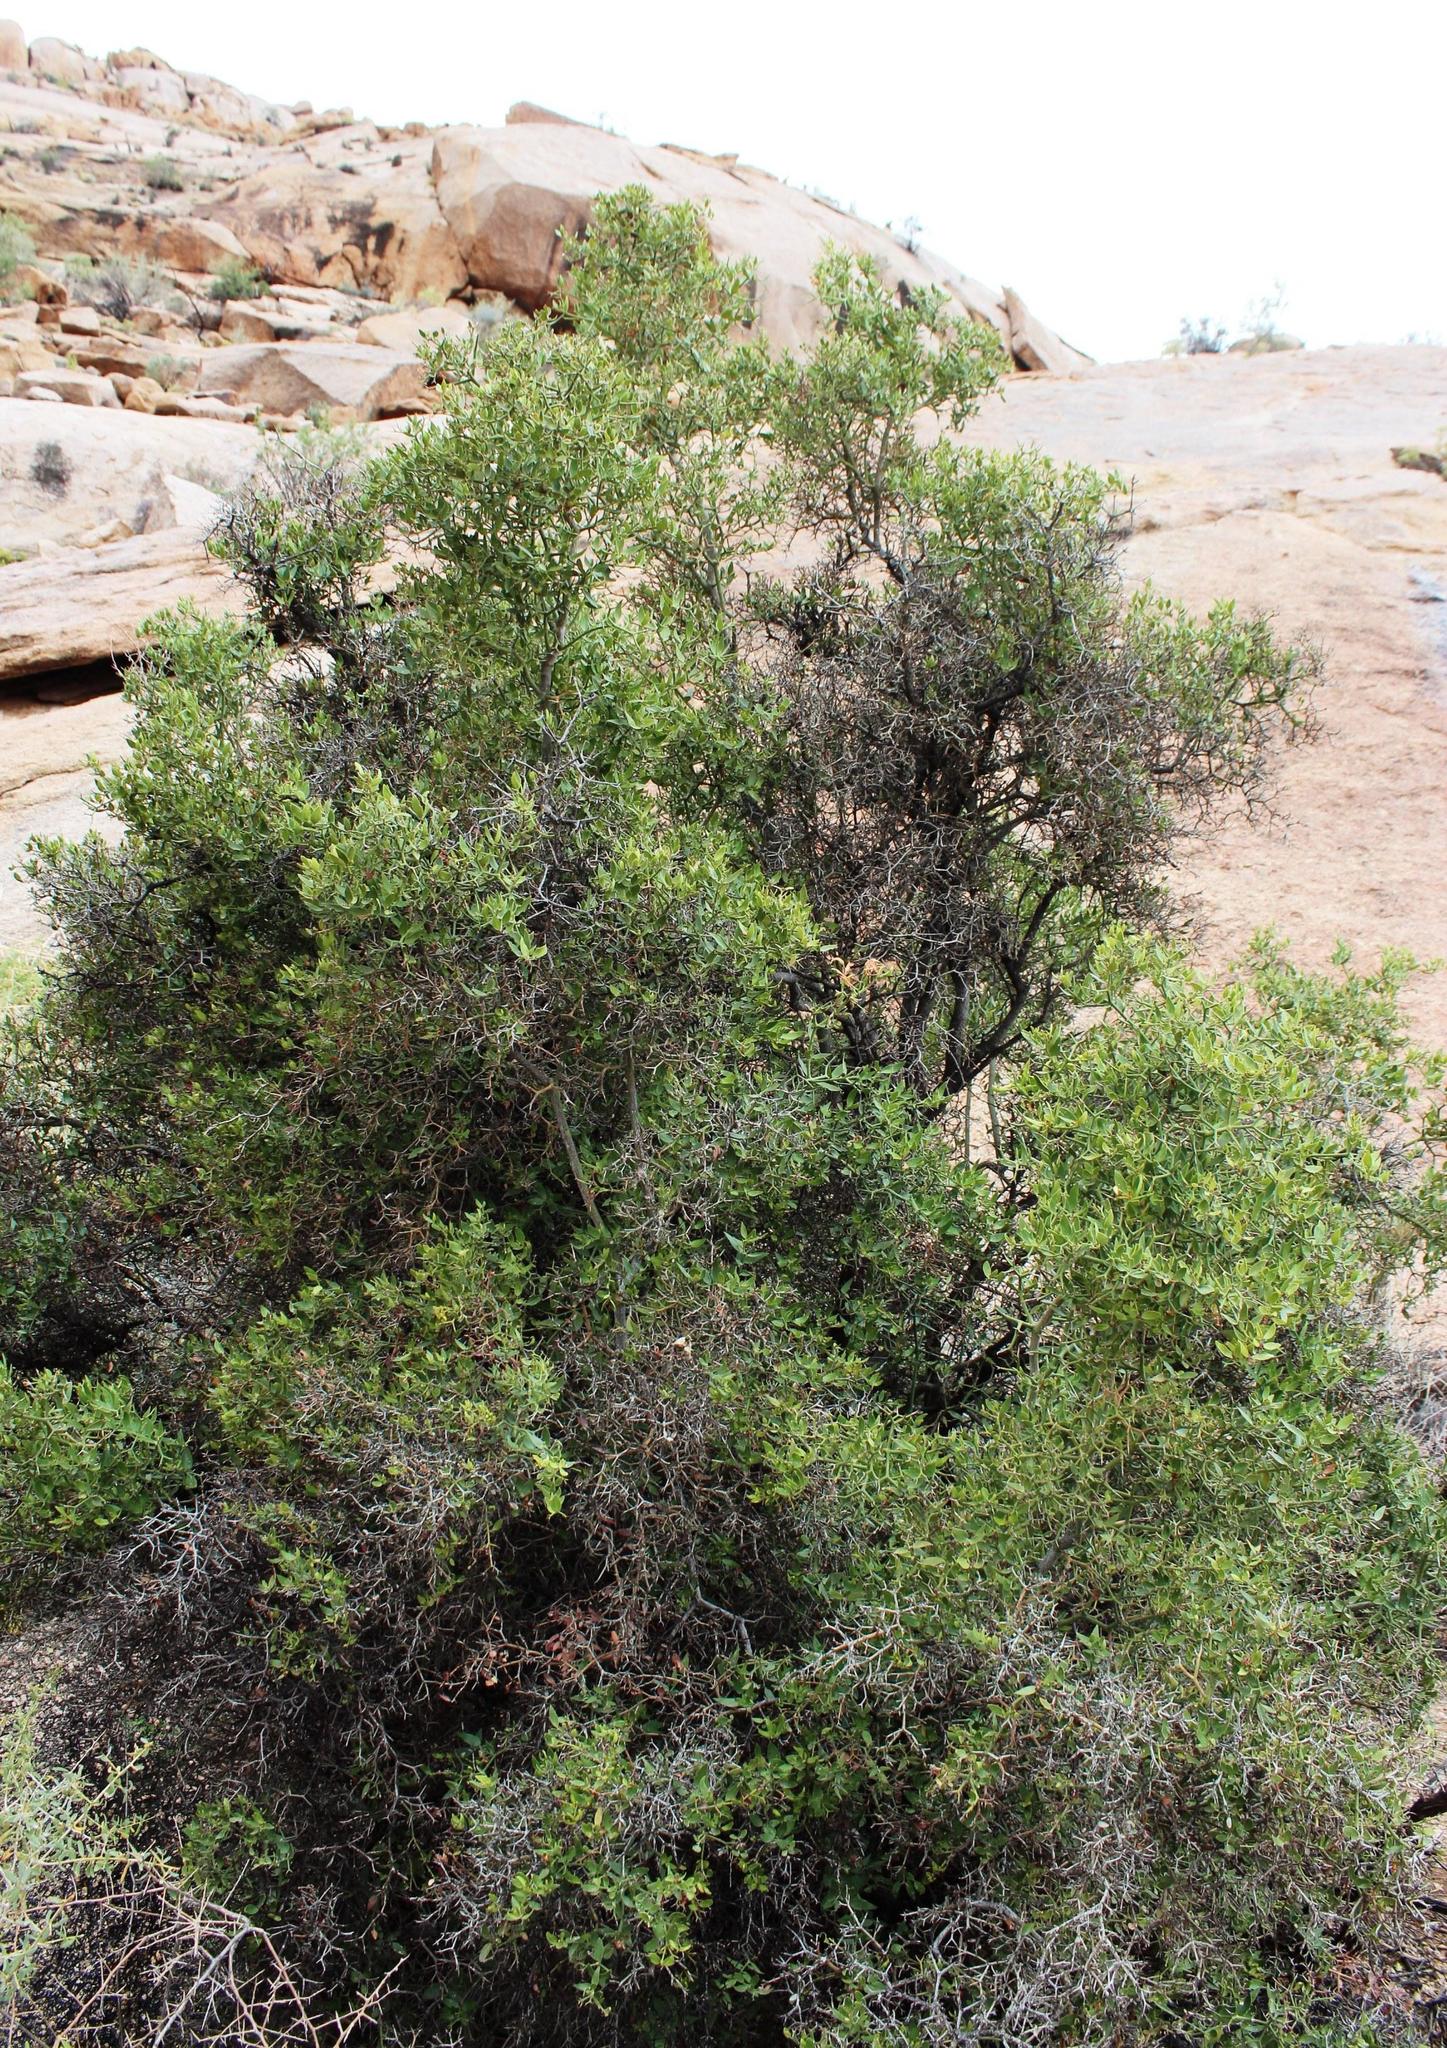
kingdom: Plantae
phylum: Tracheophyta
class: Magnoliopsida
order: Gentianales
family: Apocynaceae
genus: Carissa
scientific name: Carissa haematocarpa
